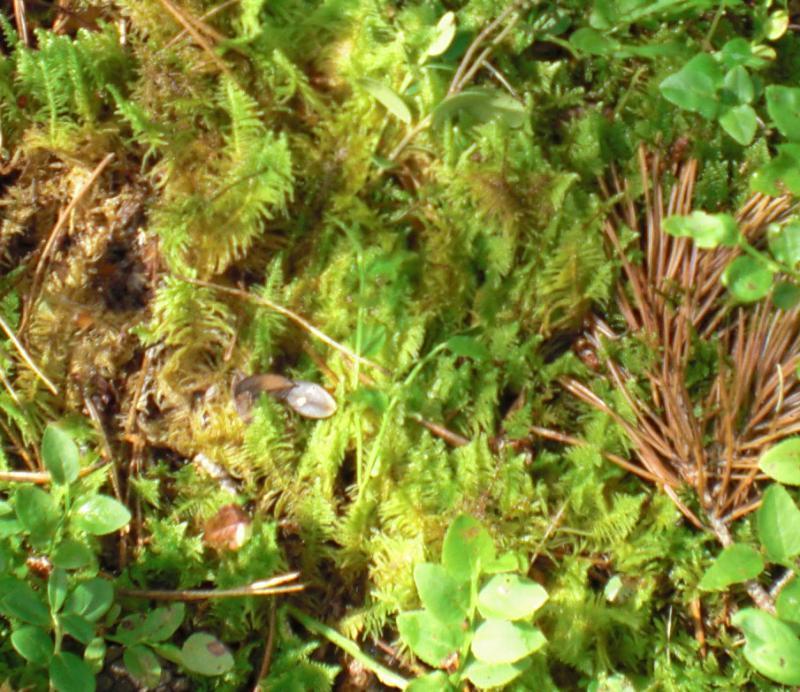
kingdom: Plantae
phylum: Bryophyta
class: Bryopsida
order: Hypnales
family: Pylaisiaceae
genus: Ptilium
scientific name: Ptilium crista-castrensis
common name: Knight's plume moss
